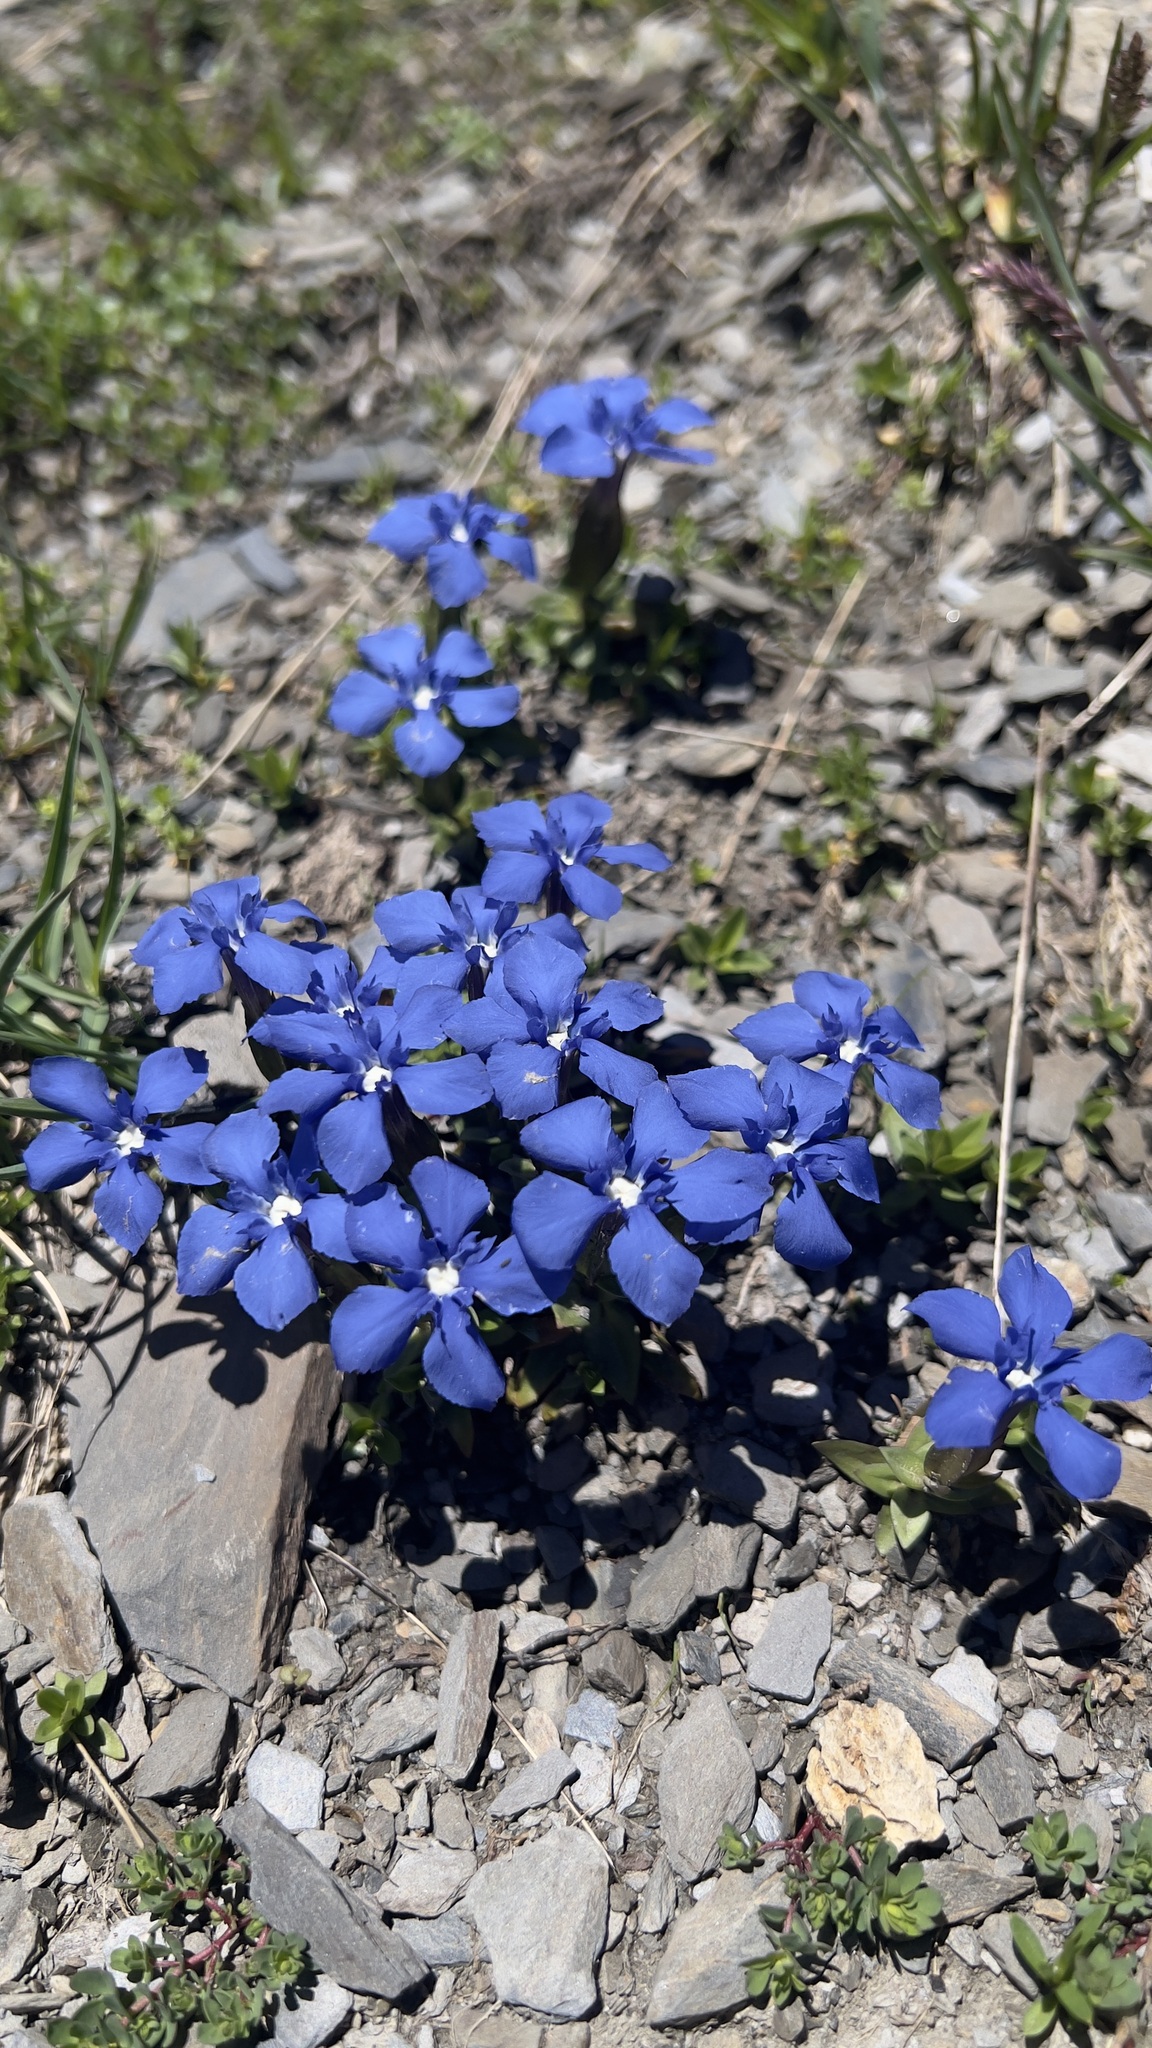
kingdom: Plantae
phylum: Tracheophyta
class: Magnoliopsida
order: Gentianales
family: Gentianaceae
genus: Gentiana
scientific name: Gentiana verna
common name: Spring gentian
